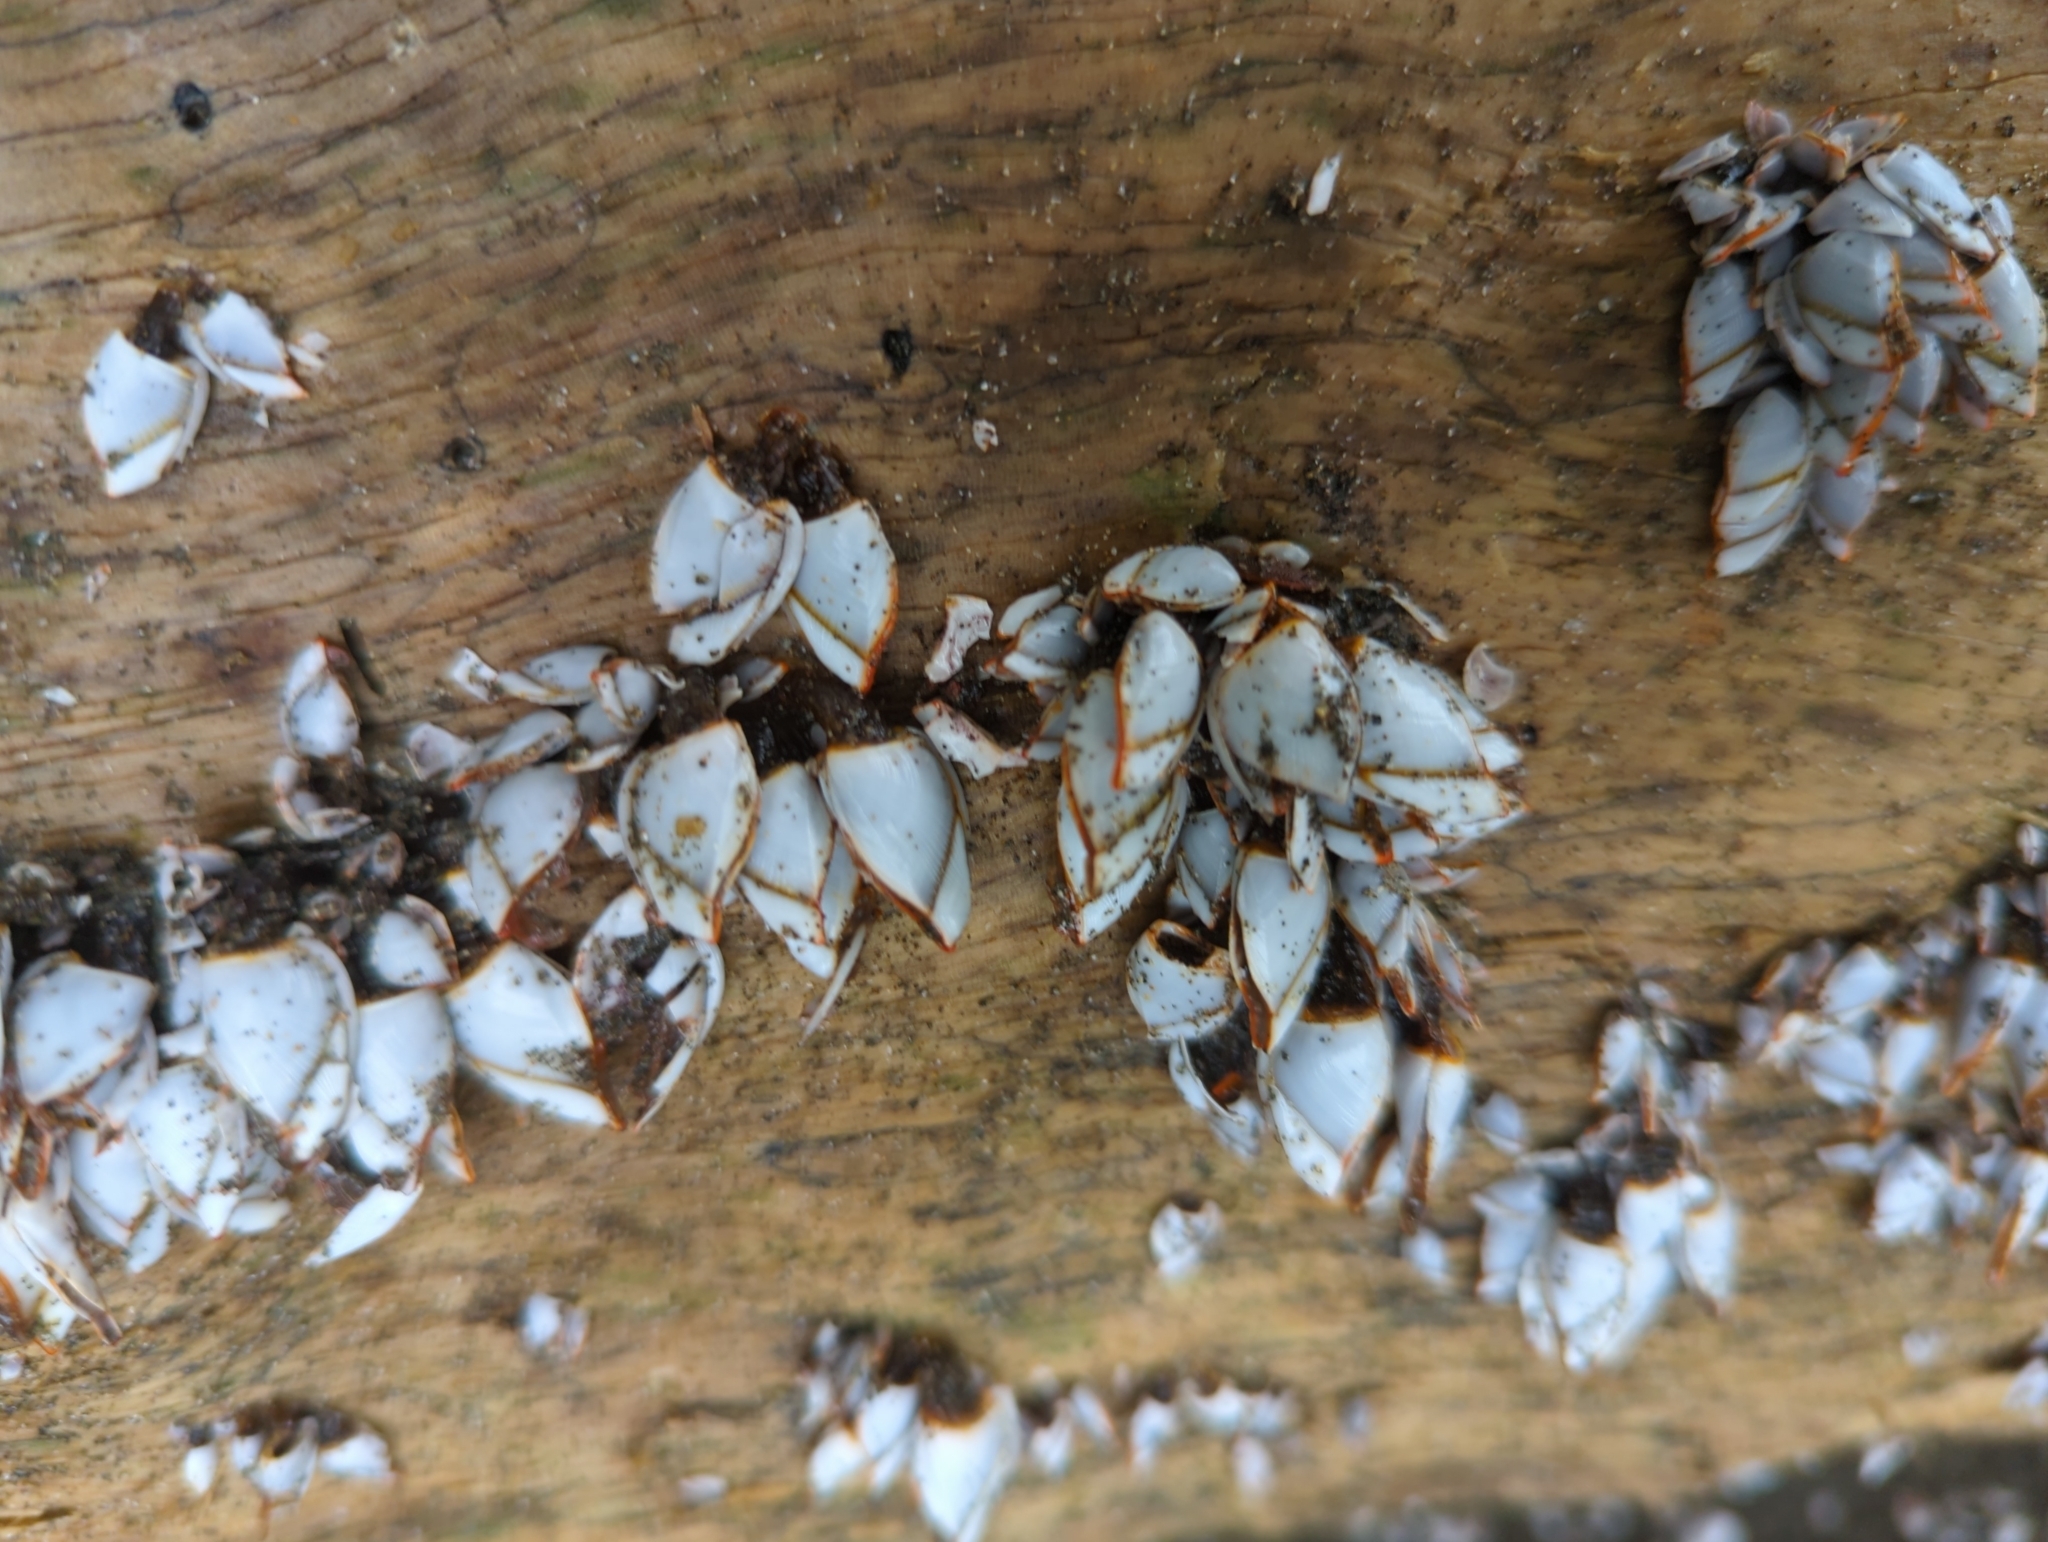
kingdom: Animalia
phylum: Arthropoda
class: Maxillopoda
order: Pedunculata
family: Lepadidae
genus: Lepas
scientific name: Lepas anserifera
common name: Goose barnacle
